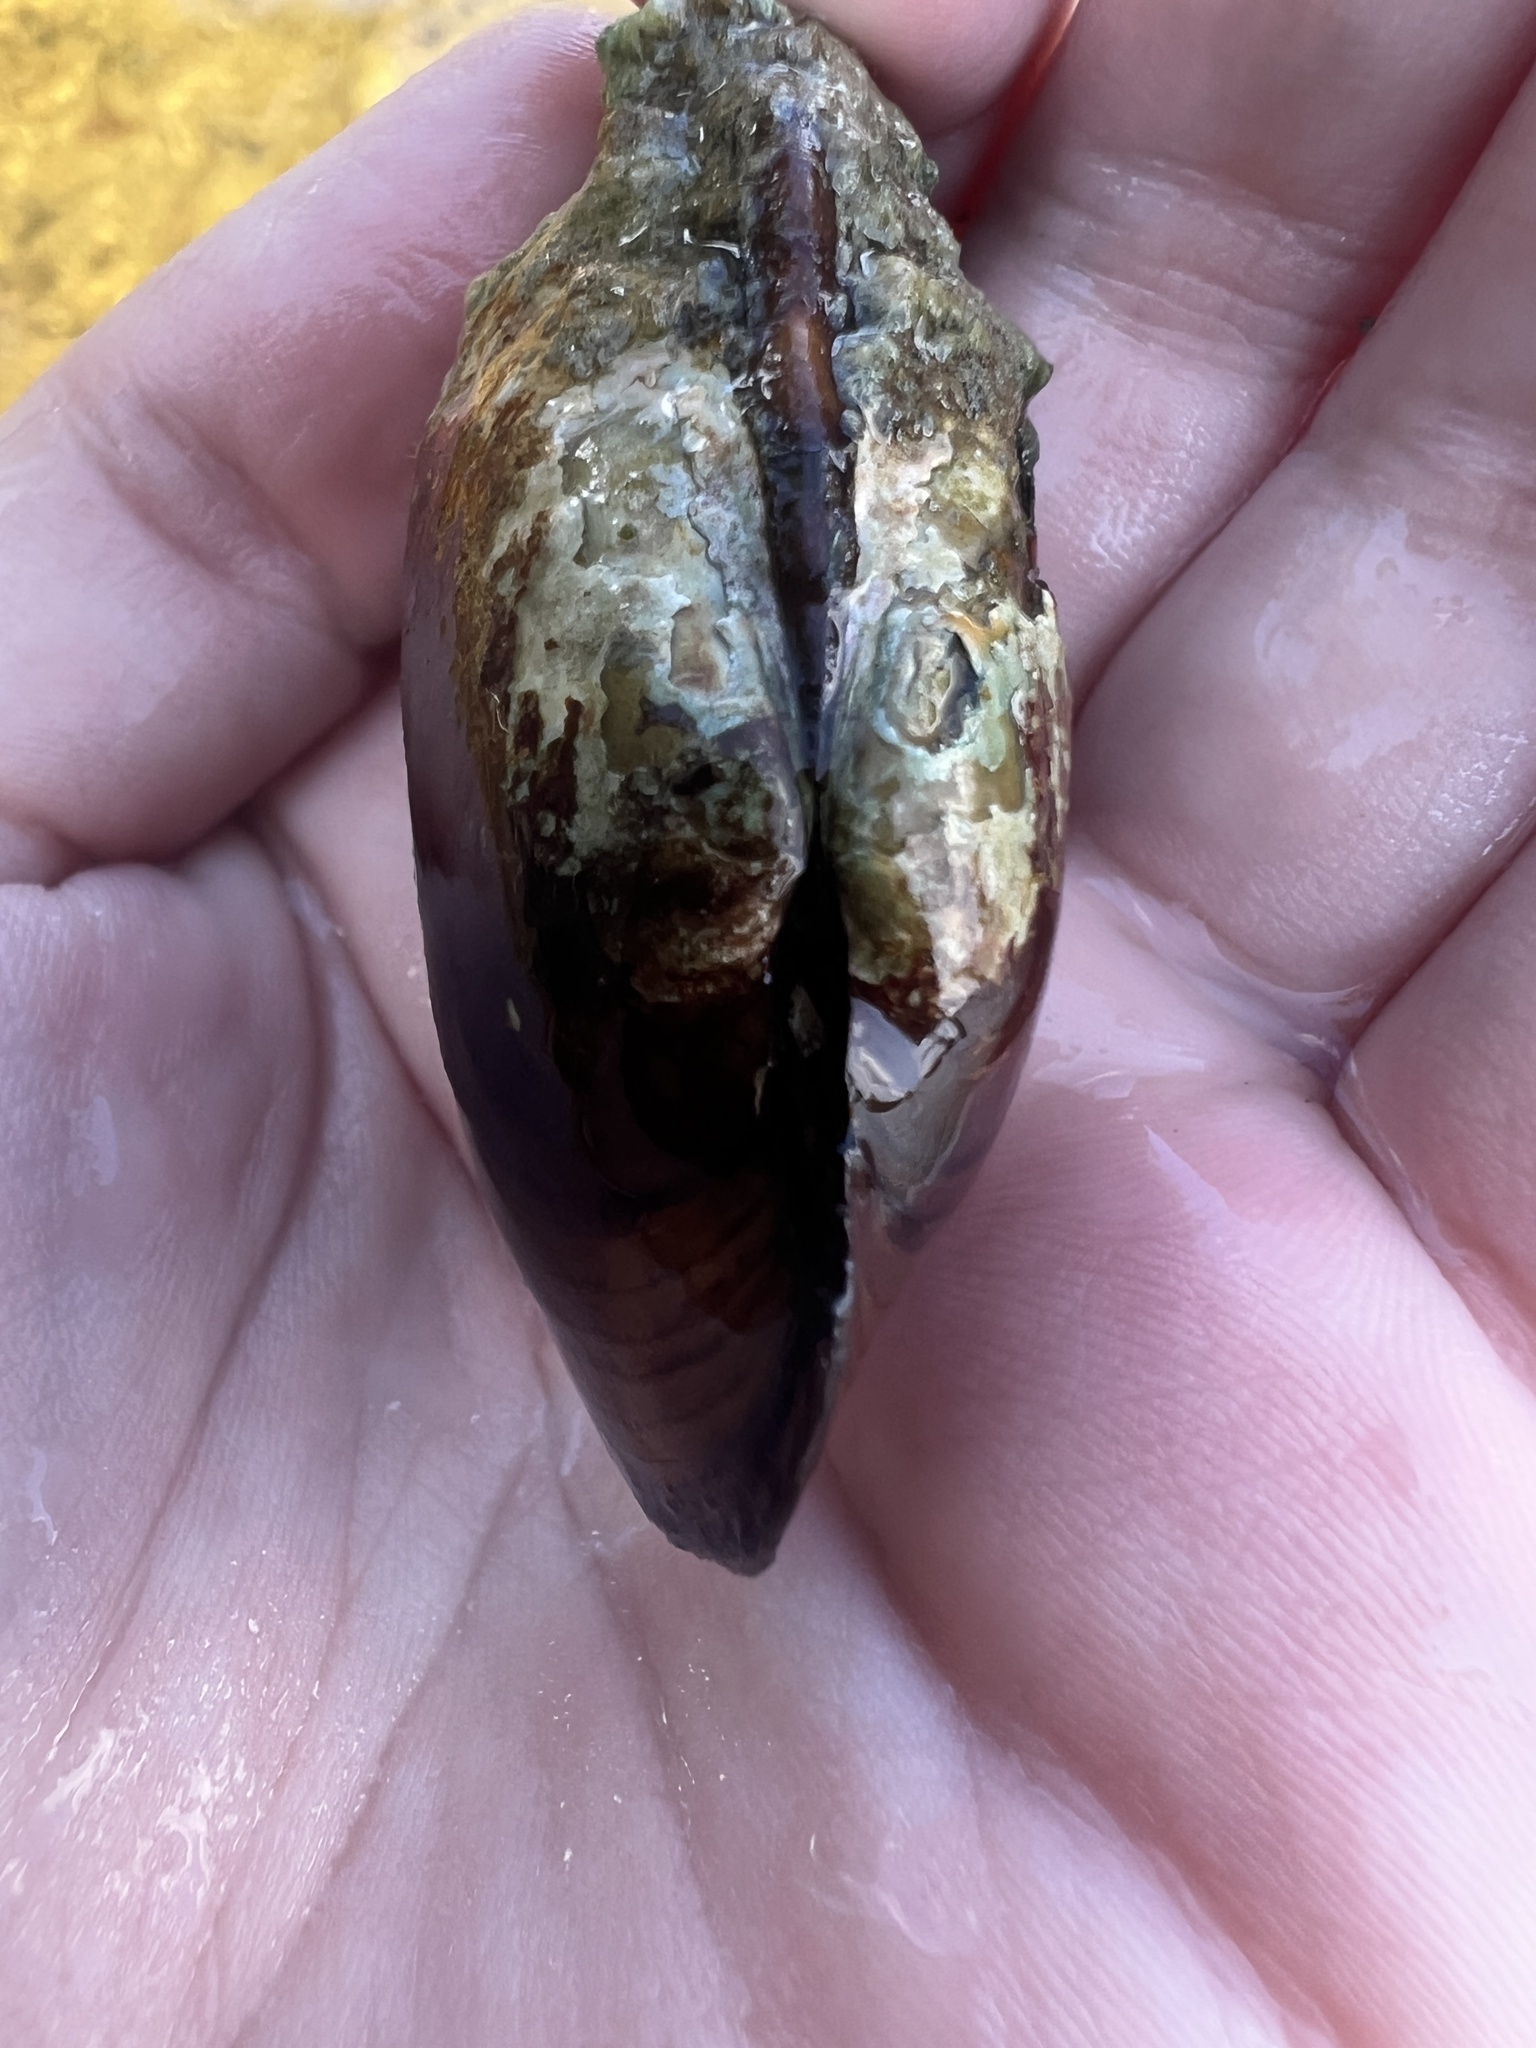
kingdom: Animalia
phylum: Mollusca
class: Bivalvia
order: Unionida
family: Unionidae
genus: Lampsilis
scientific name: Lampsilis siliquoidea
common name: Fatmucket
